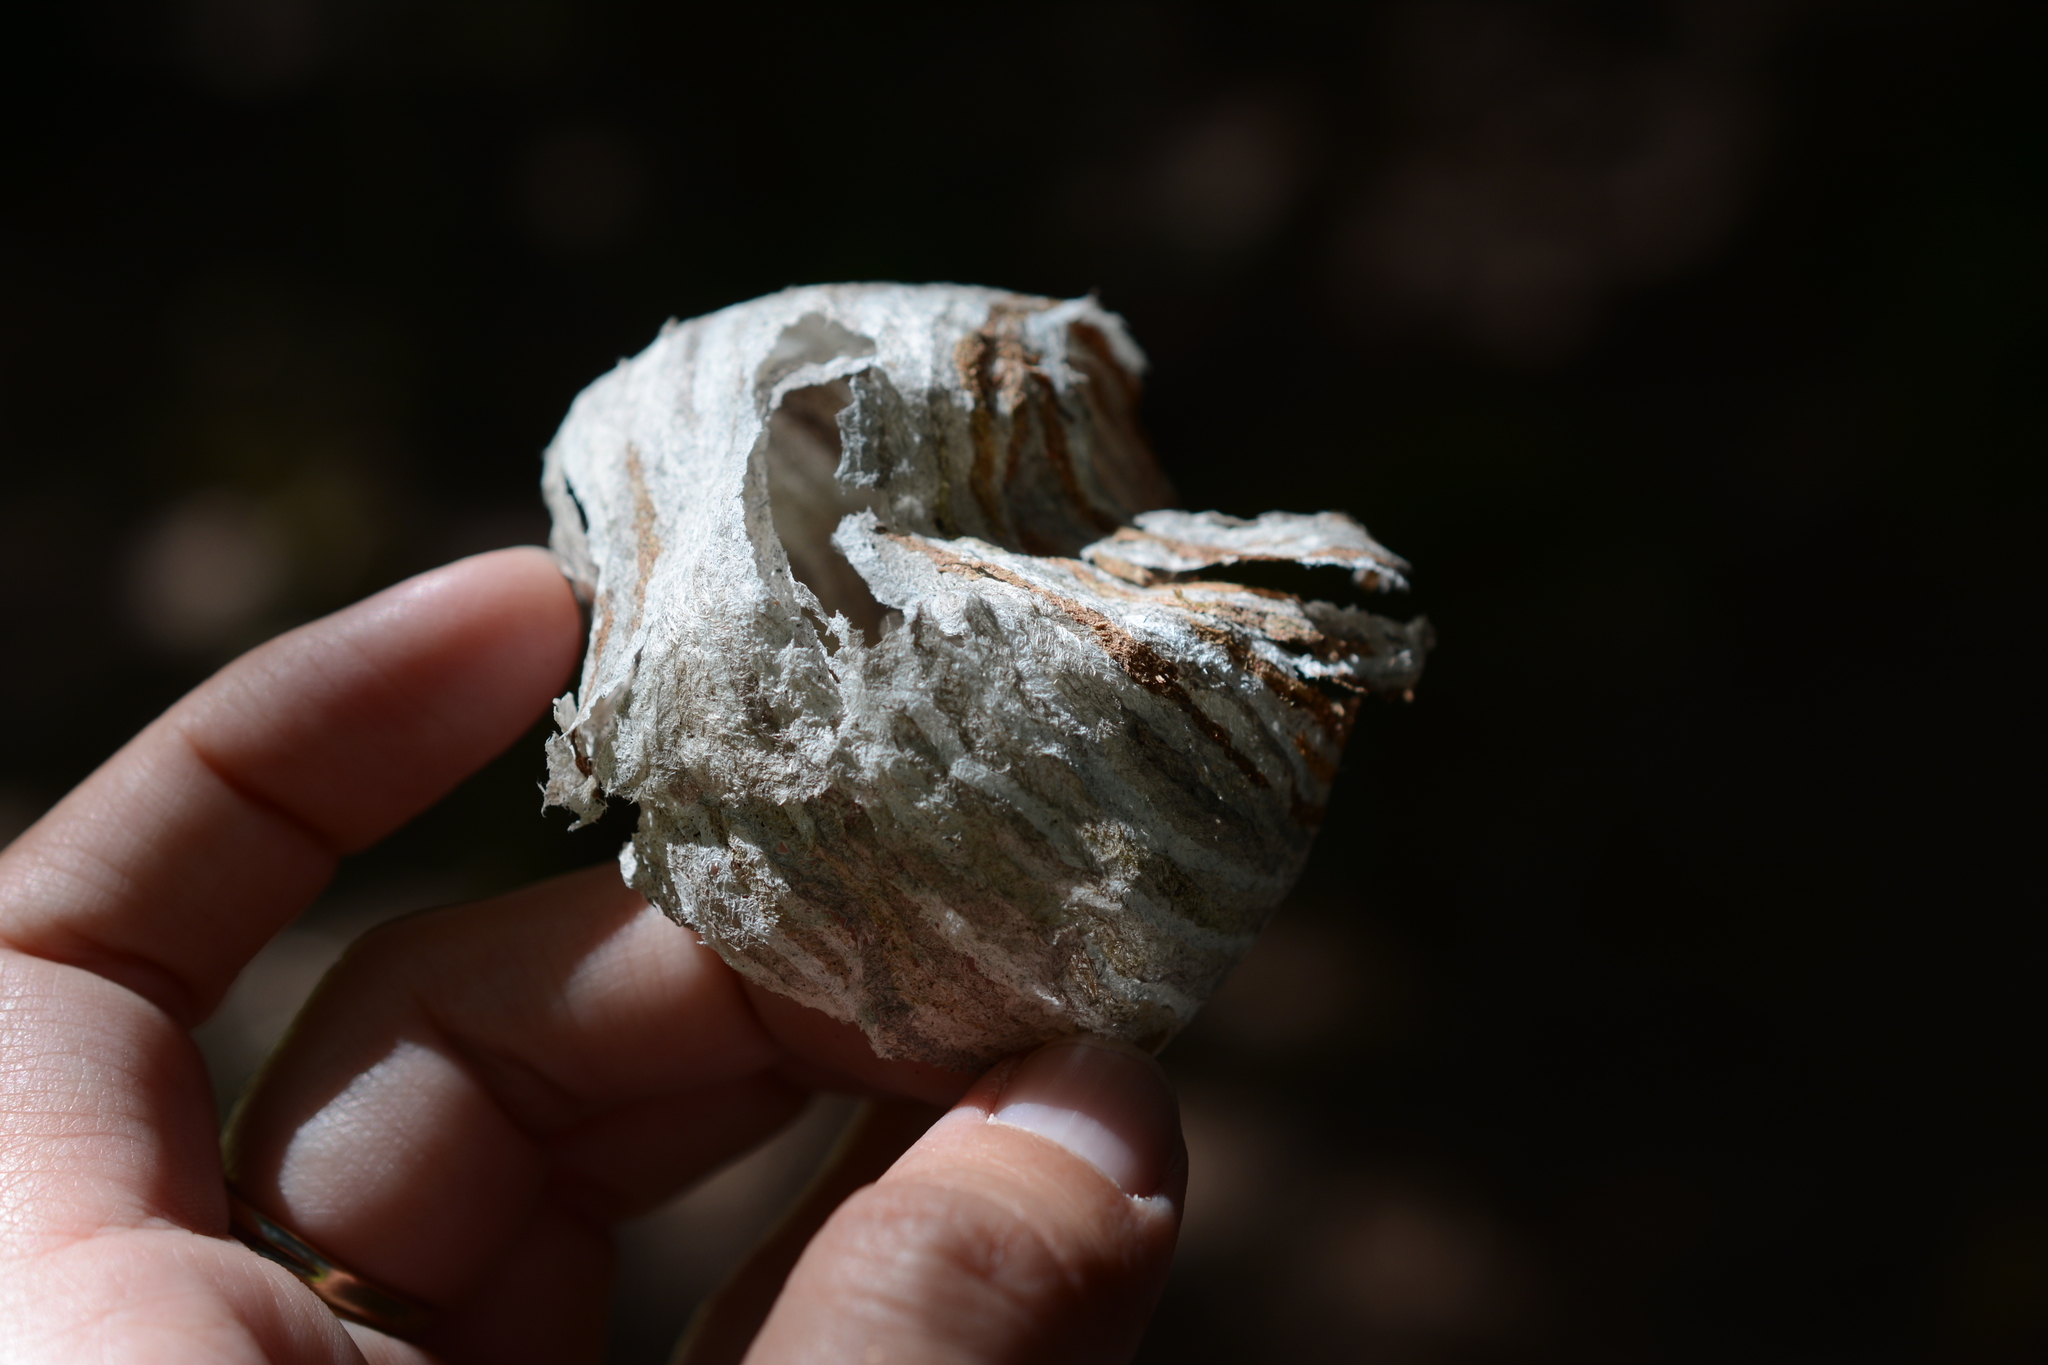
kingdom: Animalia
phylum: Arthropoda
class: Insecta
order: Hymenoptera
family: Vespidae
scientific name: Vespidae
